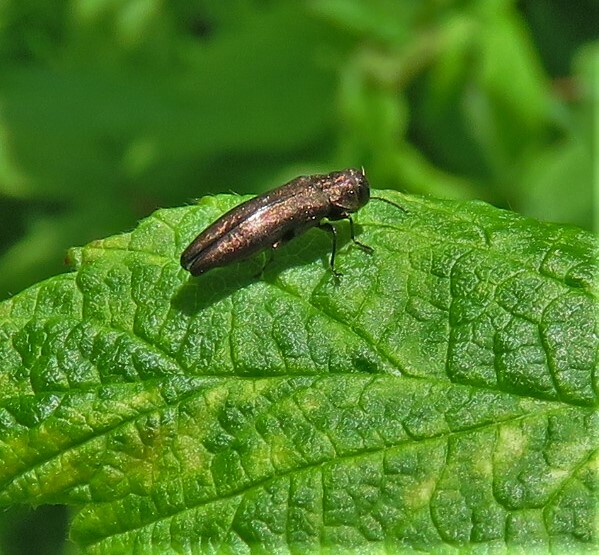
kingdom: Animalia
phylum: Arthropoda
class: Insecta
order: Coleoptera
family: Buprestidae
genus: Agrilus
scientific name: Agrilus cuprescens
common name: Rose stem girdler
